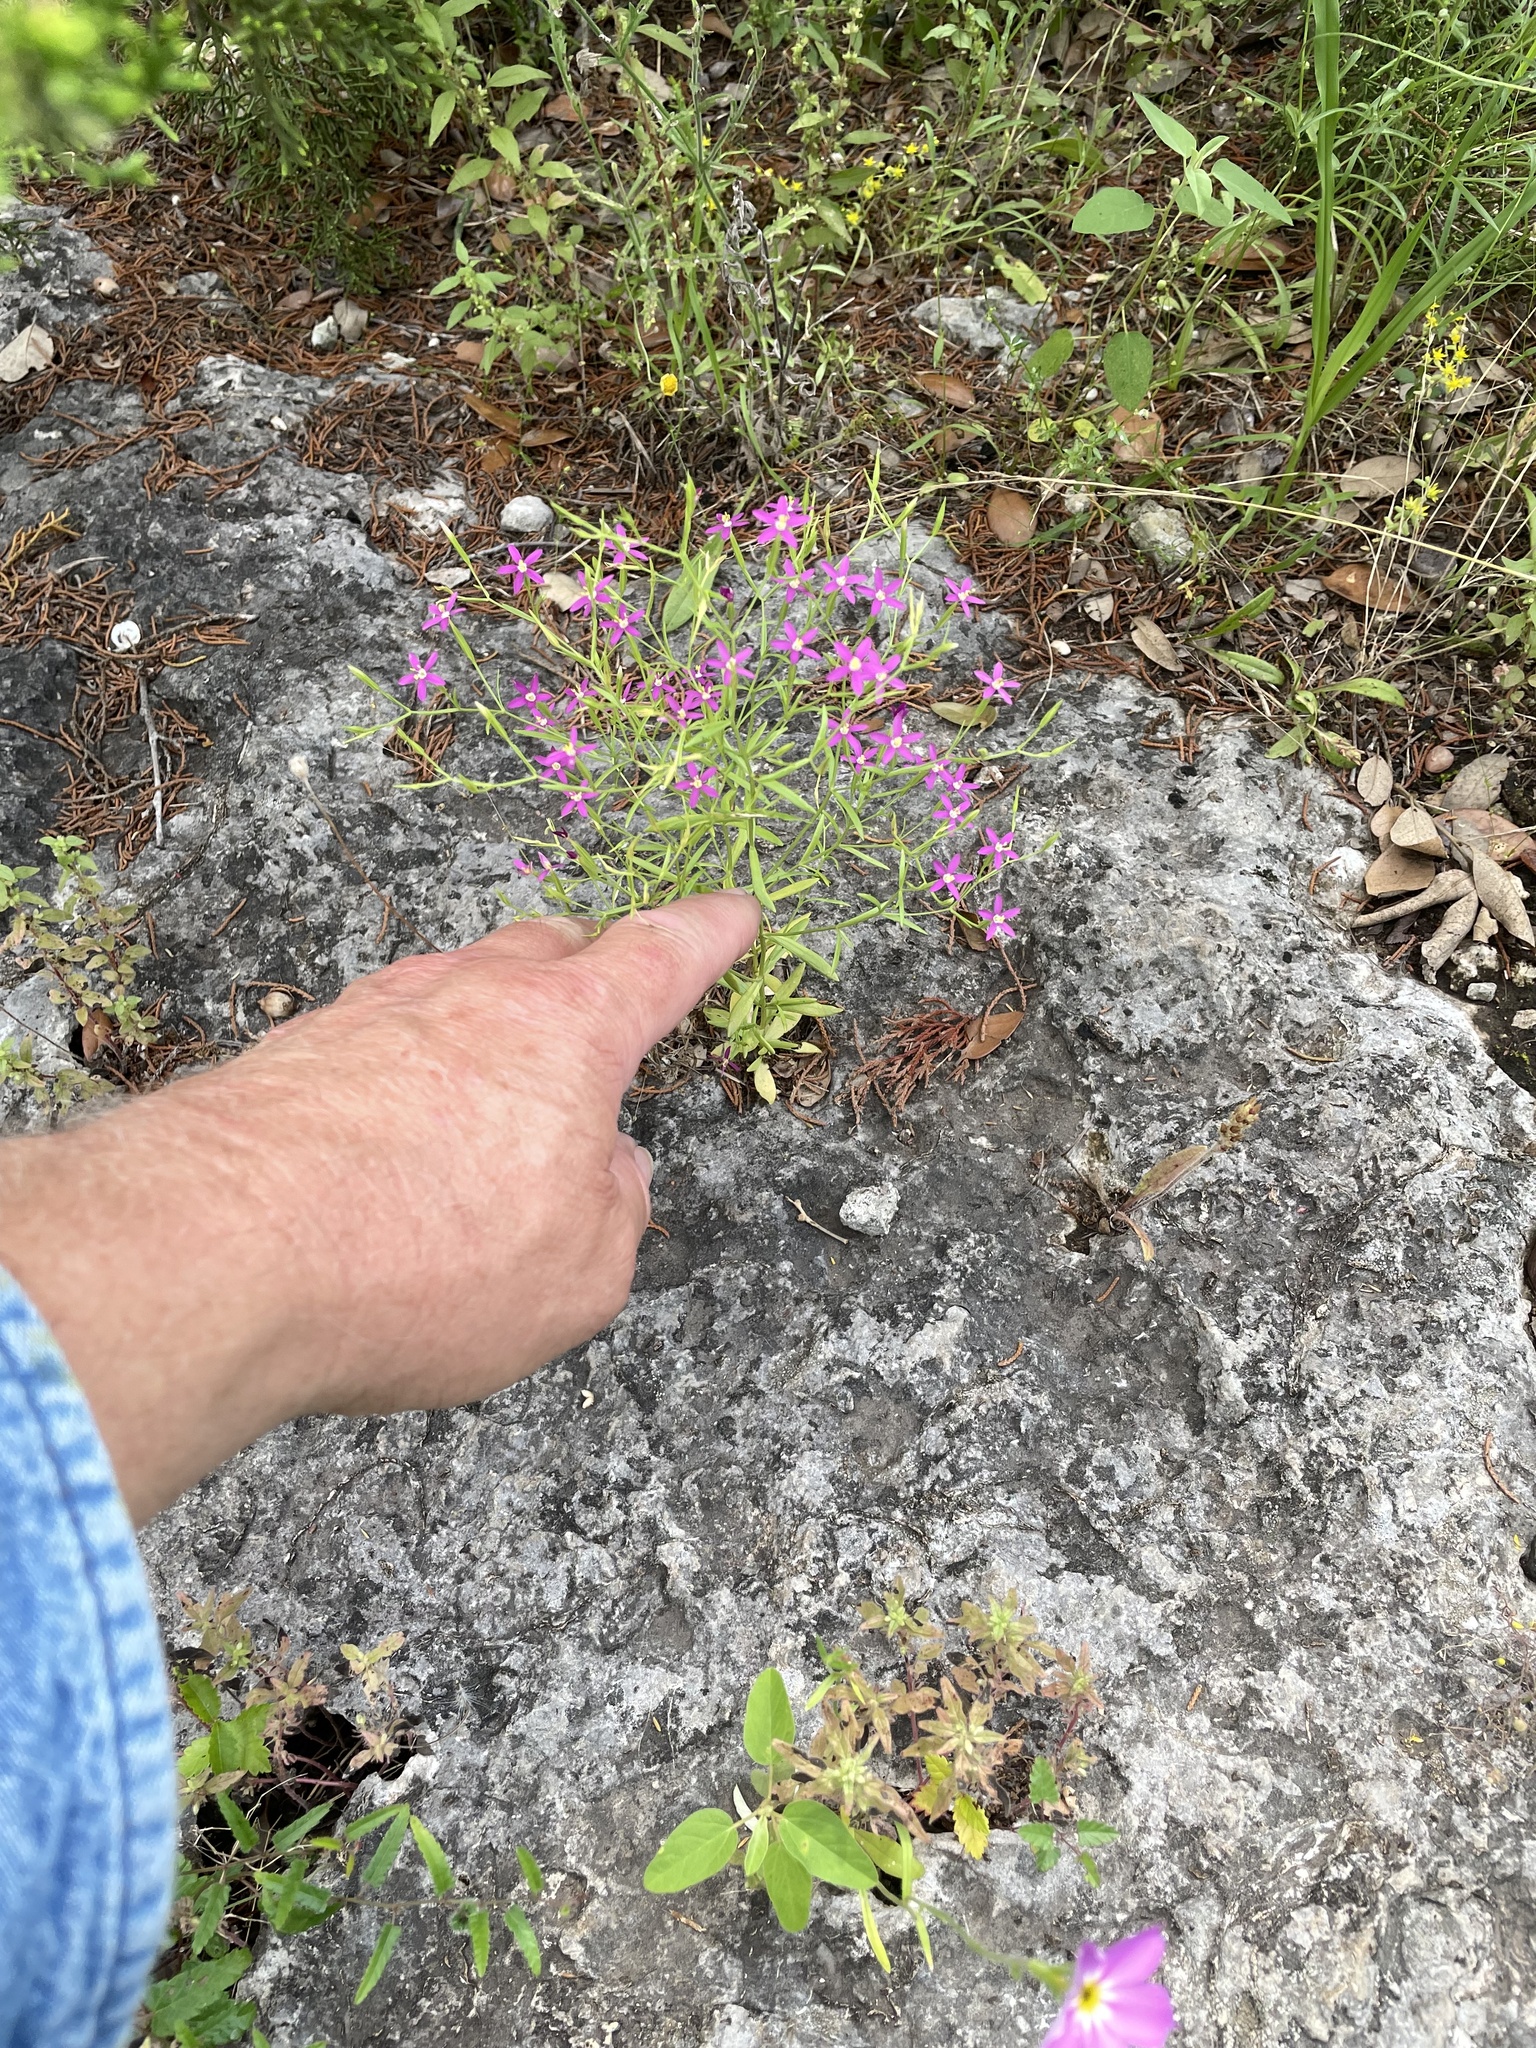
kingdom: Plantae
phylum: Tracheophyta
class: Magnoliopsida
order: Gentianales
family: Gentianaceae
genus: Zeltnera
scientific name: Zeltnera texensis
